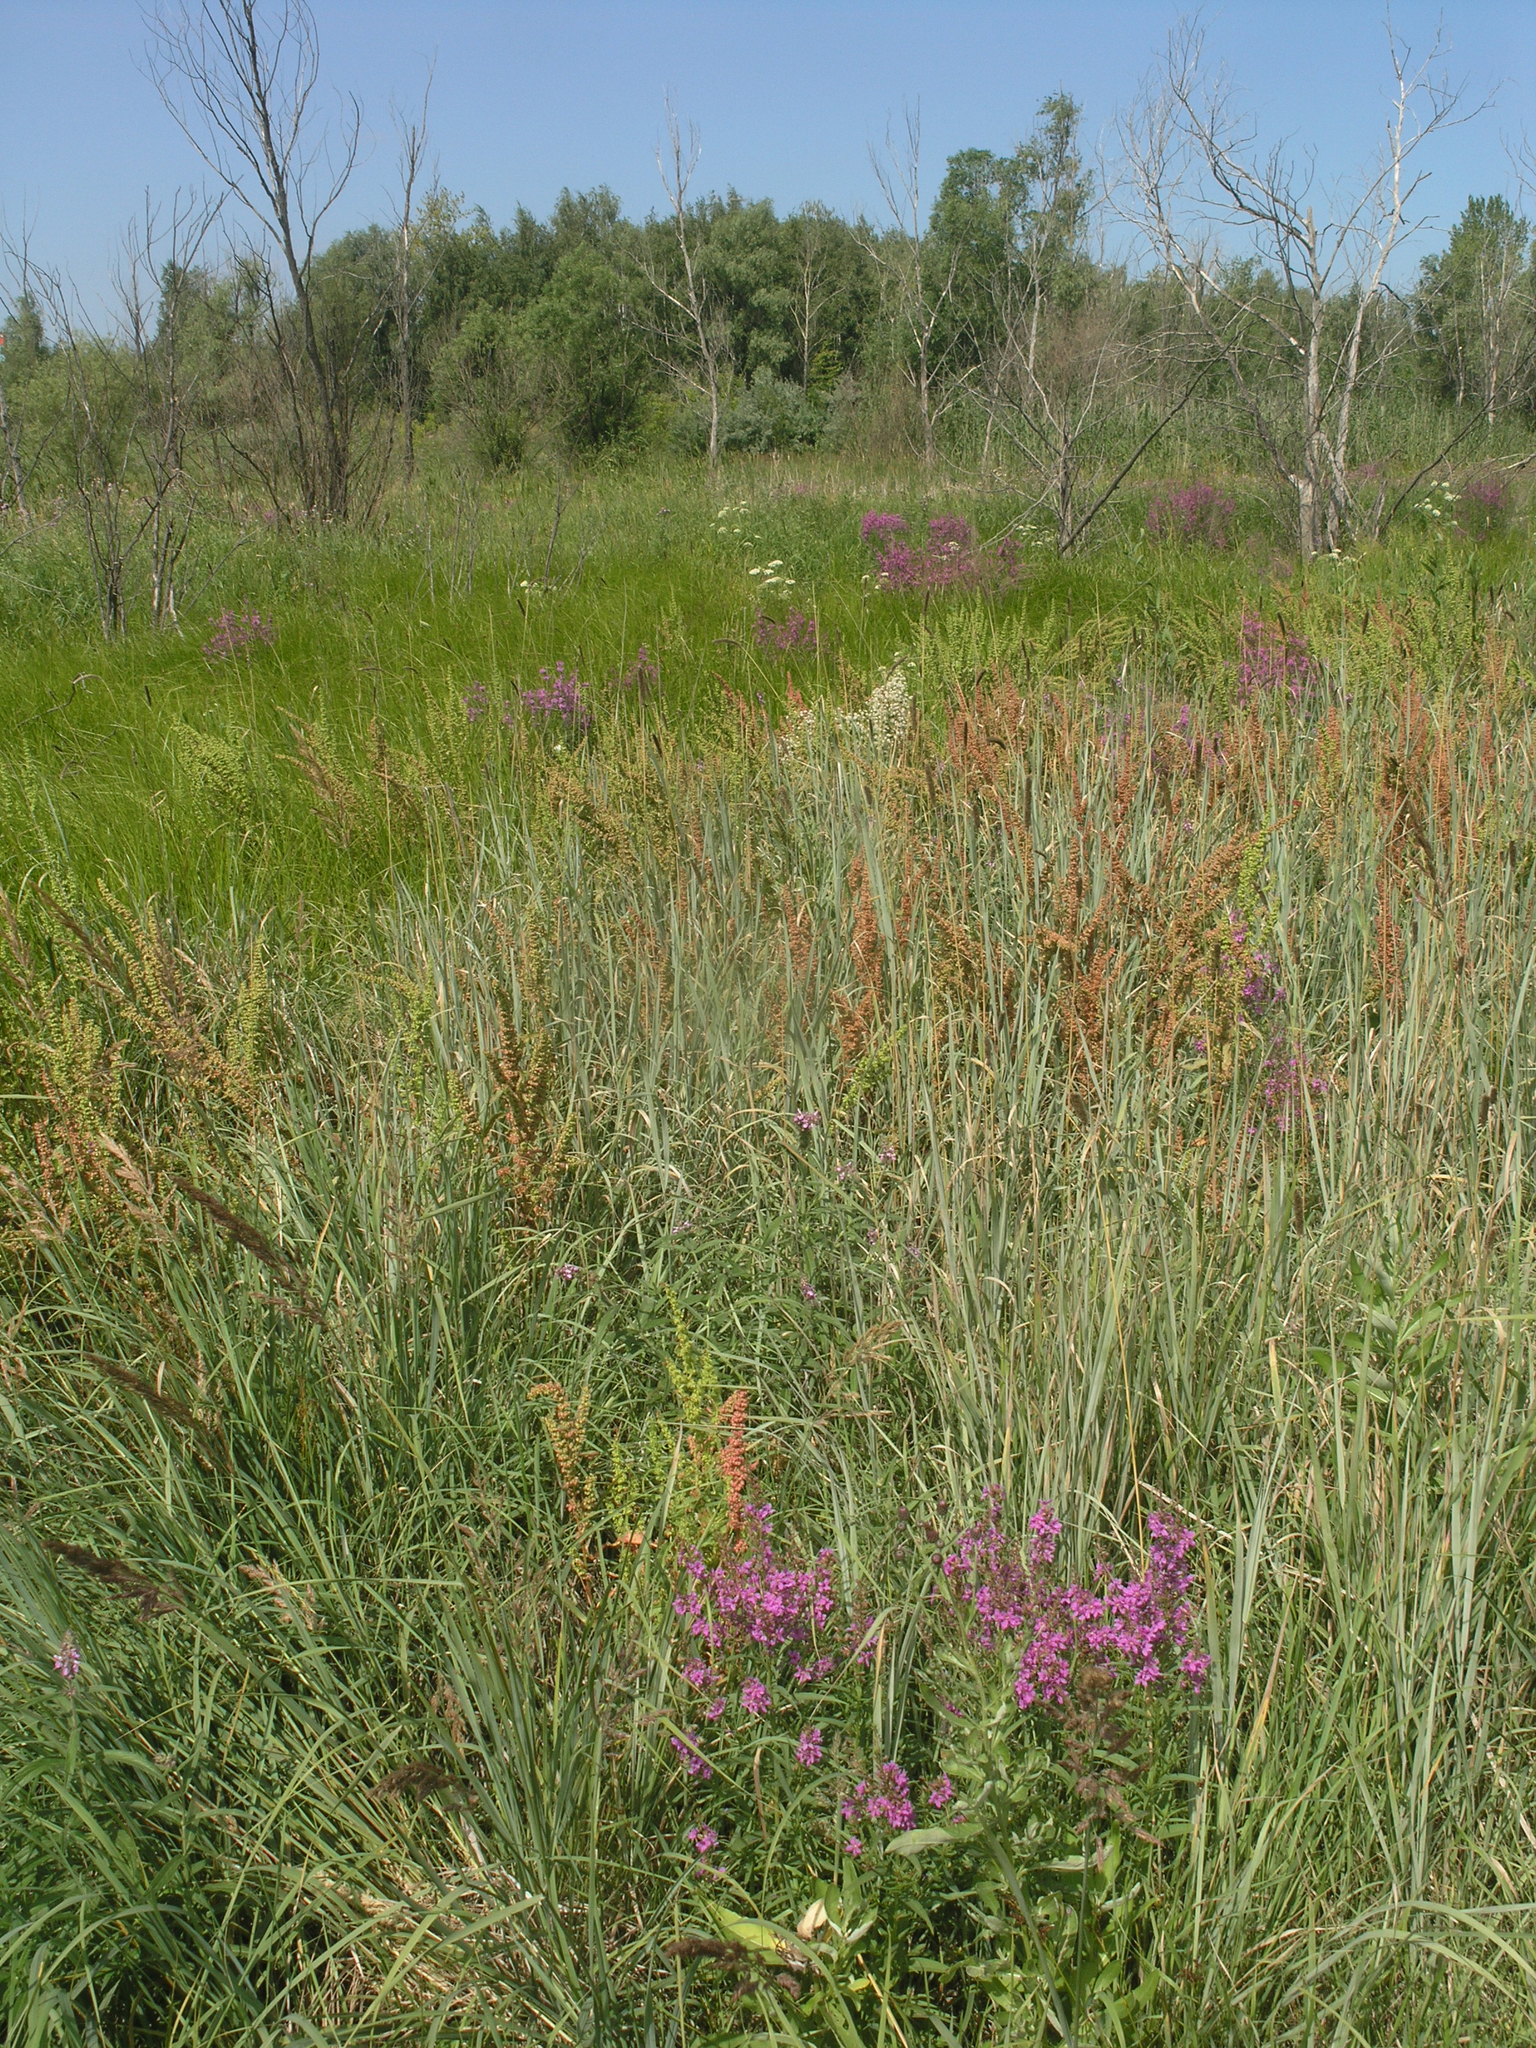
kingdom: Plantae
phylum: Tracheophyta
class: Magnoliopsida
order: Myrtales
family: Lythraceae
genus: Lythrum
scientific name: Lythrum salicaria
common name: Purple loosestrife
